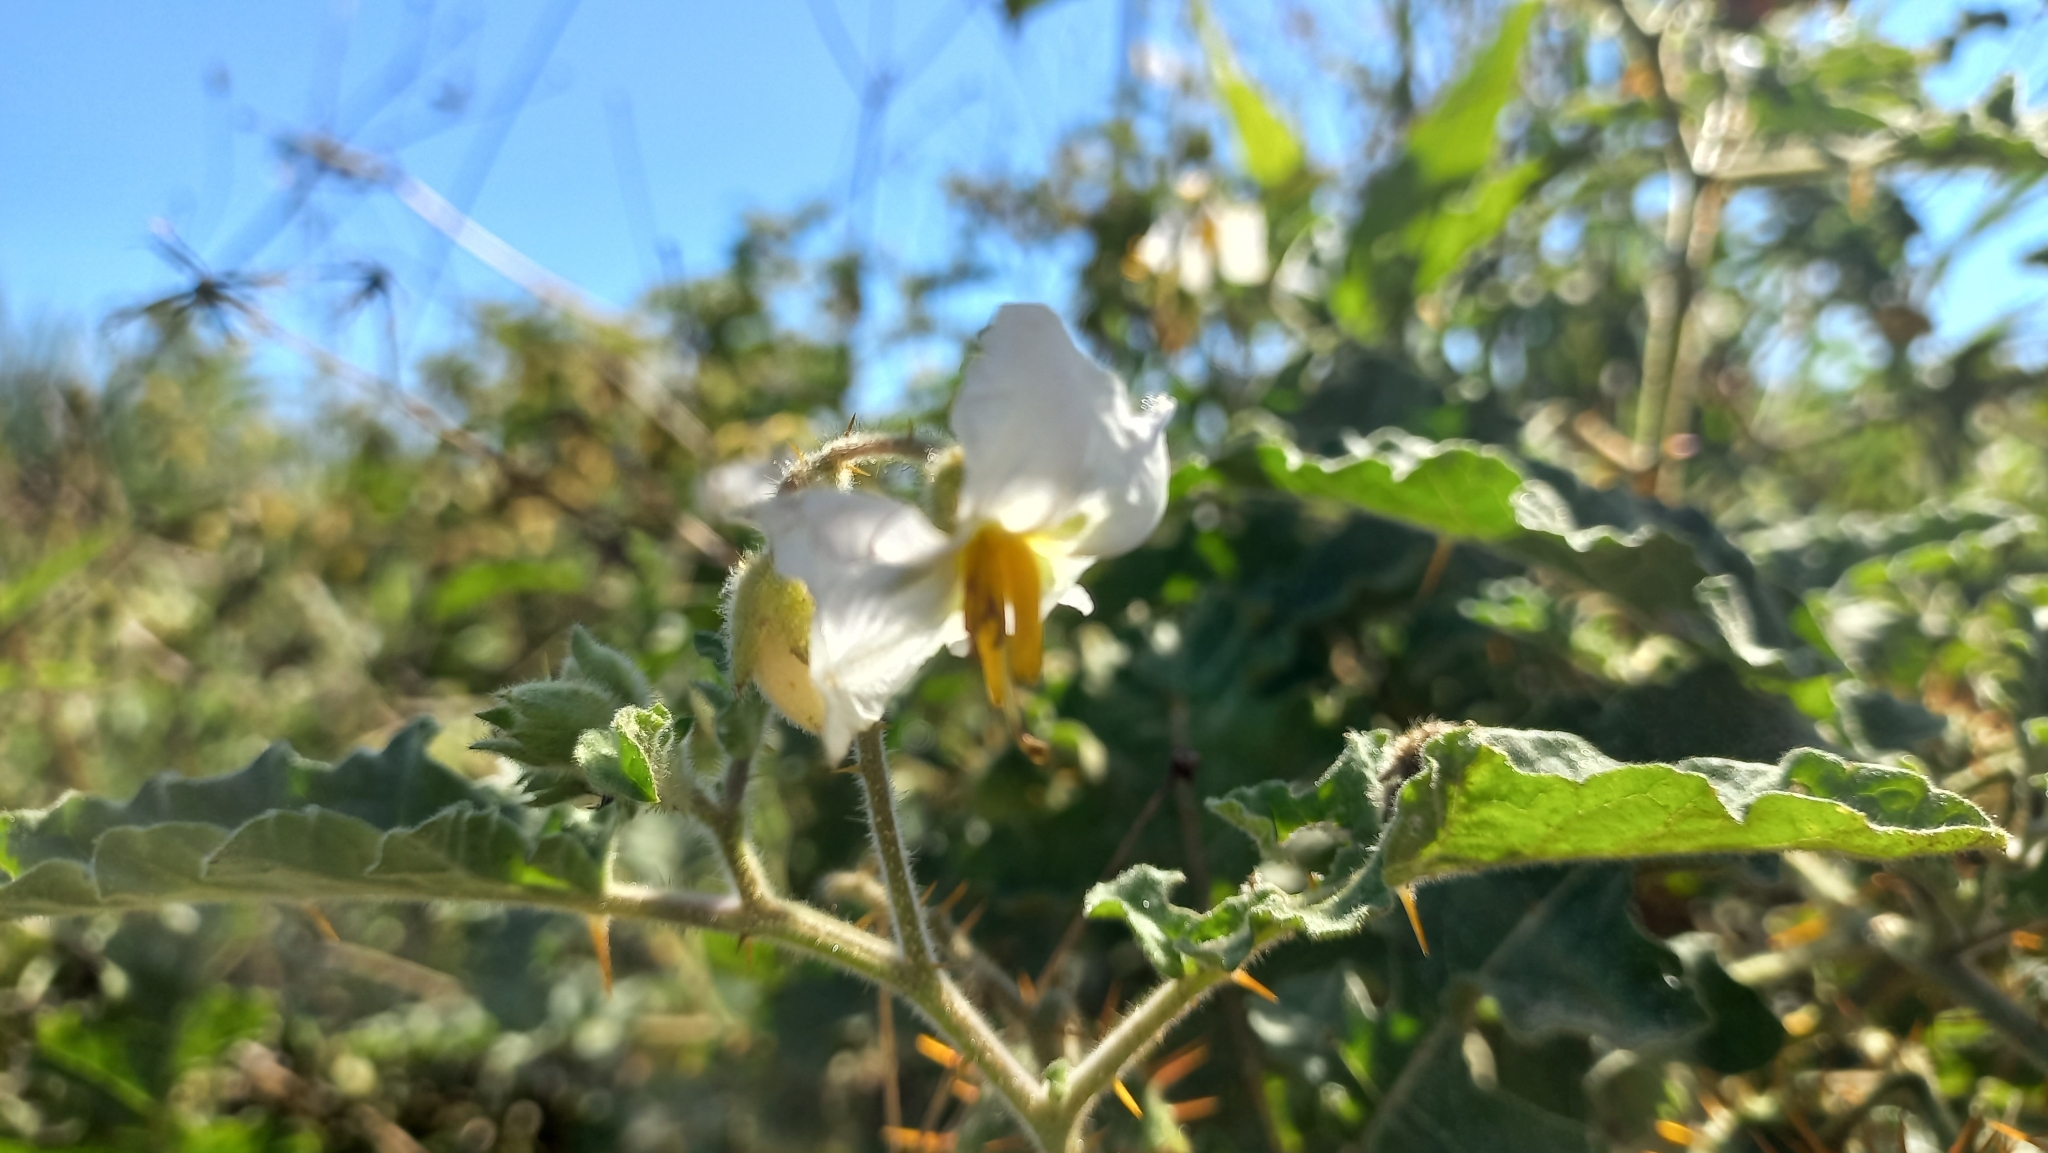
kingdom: Plantae
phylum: Tracheophyta
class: Magnoliopsida
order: Solanales
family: Solanaceae
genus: Solanum
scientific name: Solanum sisymbriifolium
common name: Red buffalo-bur
